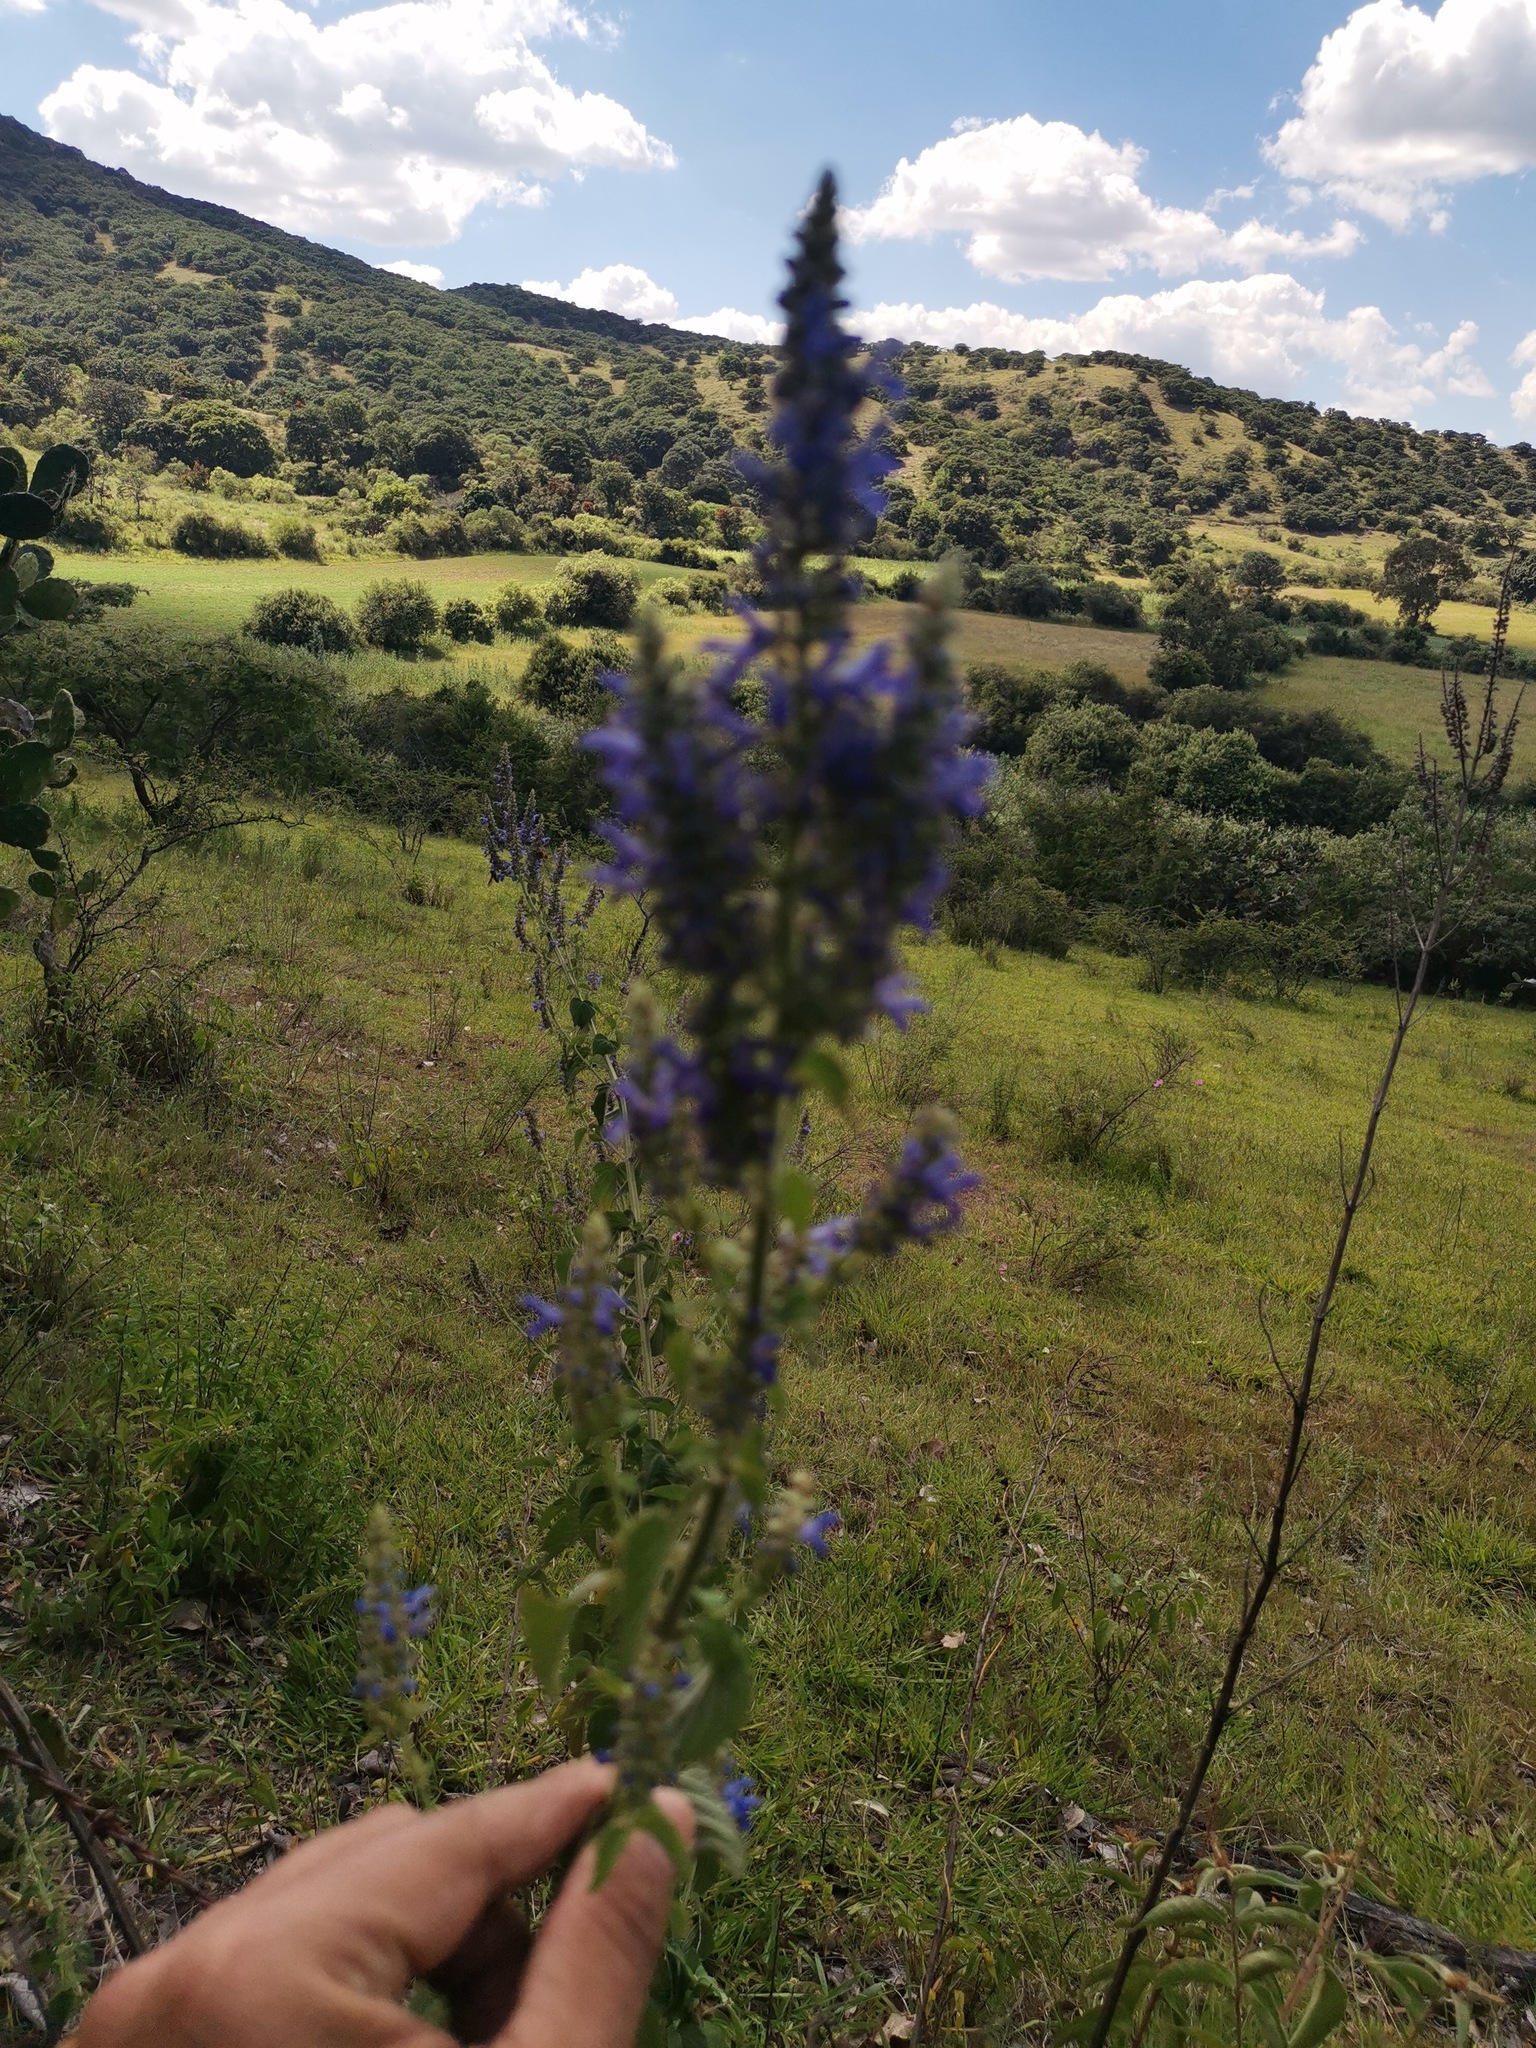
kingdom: Plantae
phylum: Tracheophyta
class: Magnoliopsida
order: Lamiales
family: Lamiaceae
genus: Salvia
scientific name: Salvia polystachia
